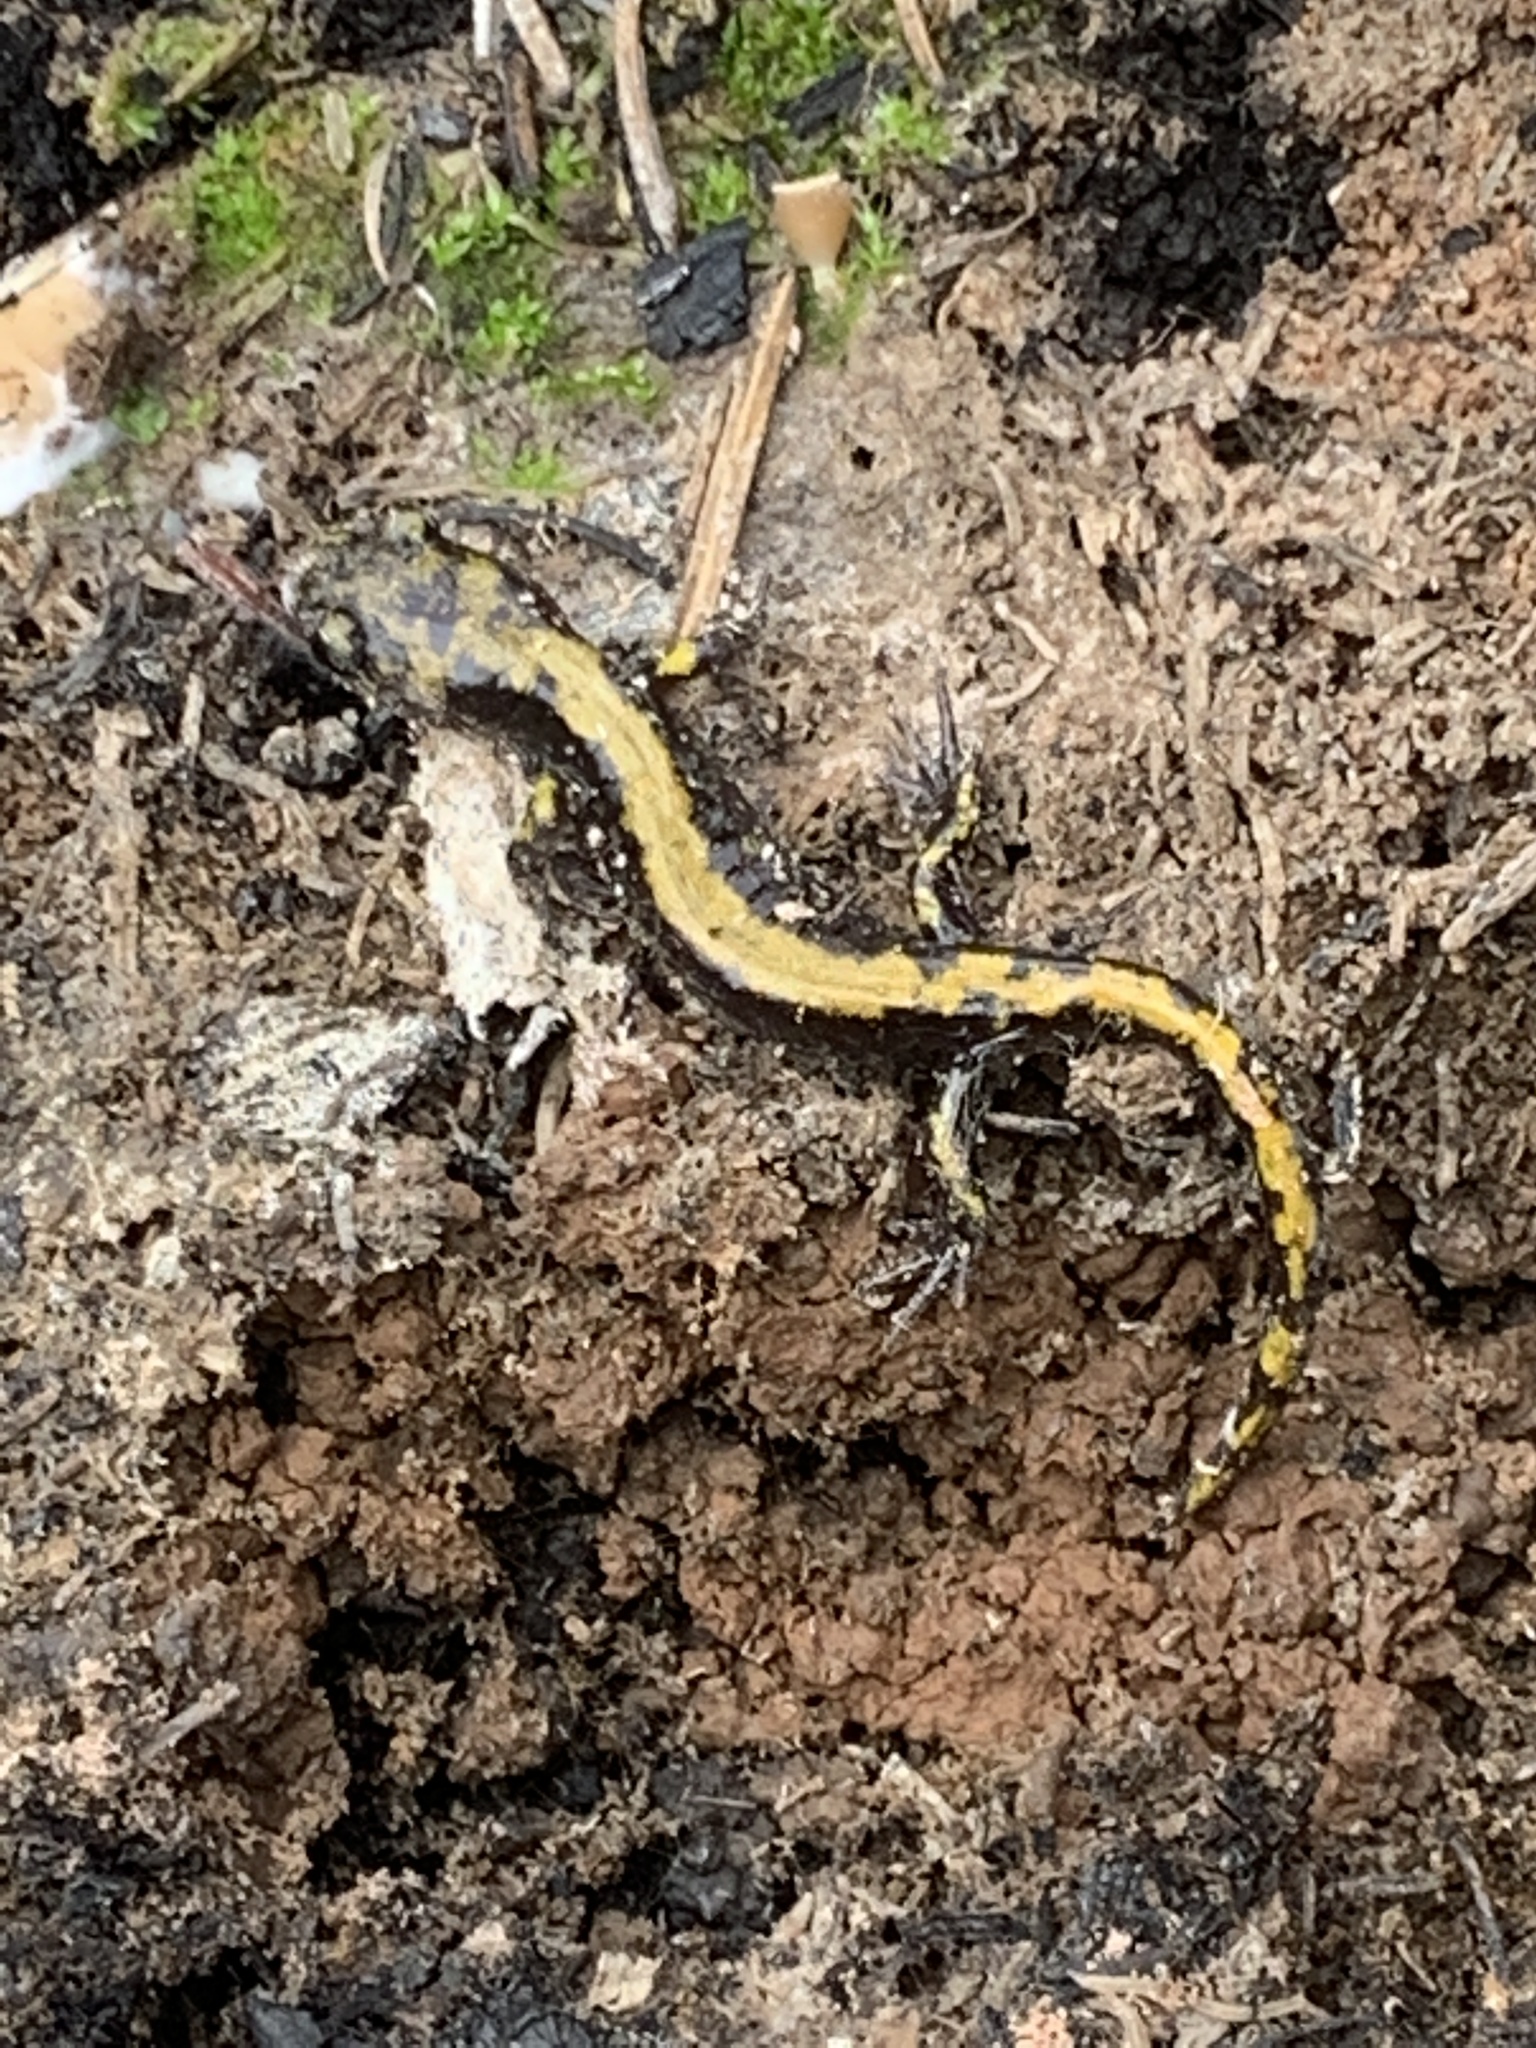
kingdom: Animalia
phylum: Chordata
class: Amphibia
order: Caudata
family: Ambystomatidae
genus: Ambystoma
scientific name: Ambystoma macrodactylum
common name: Long-toed salamander
